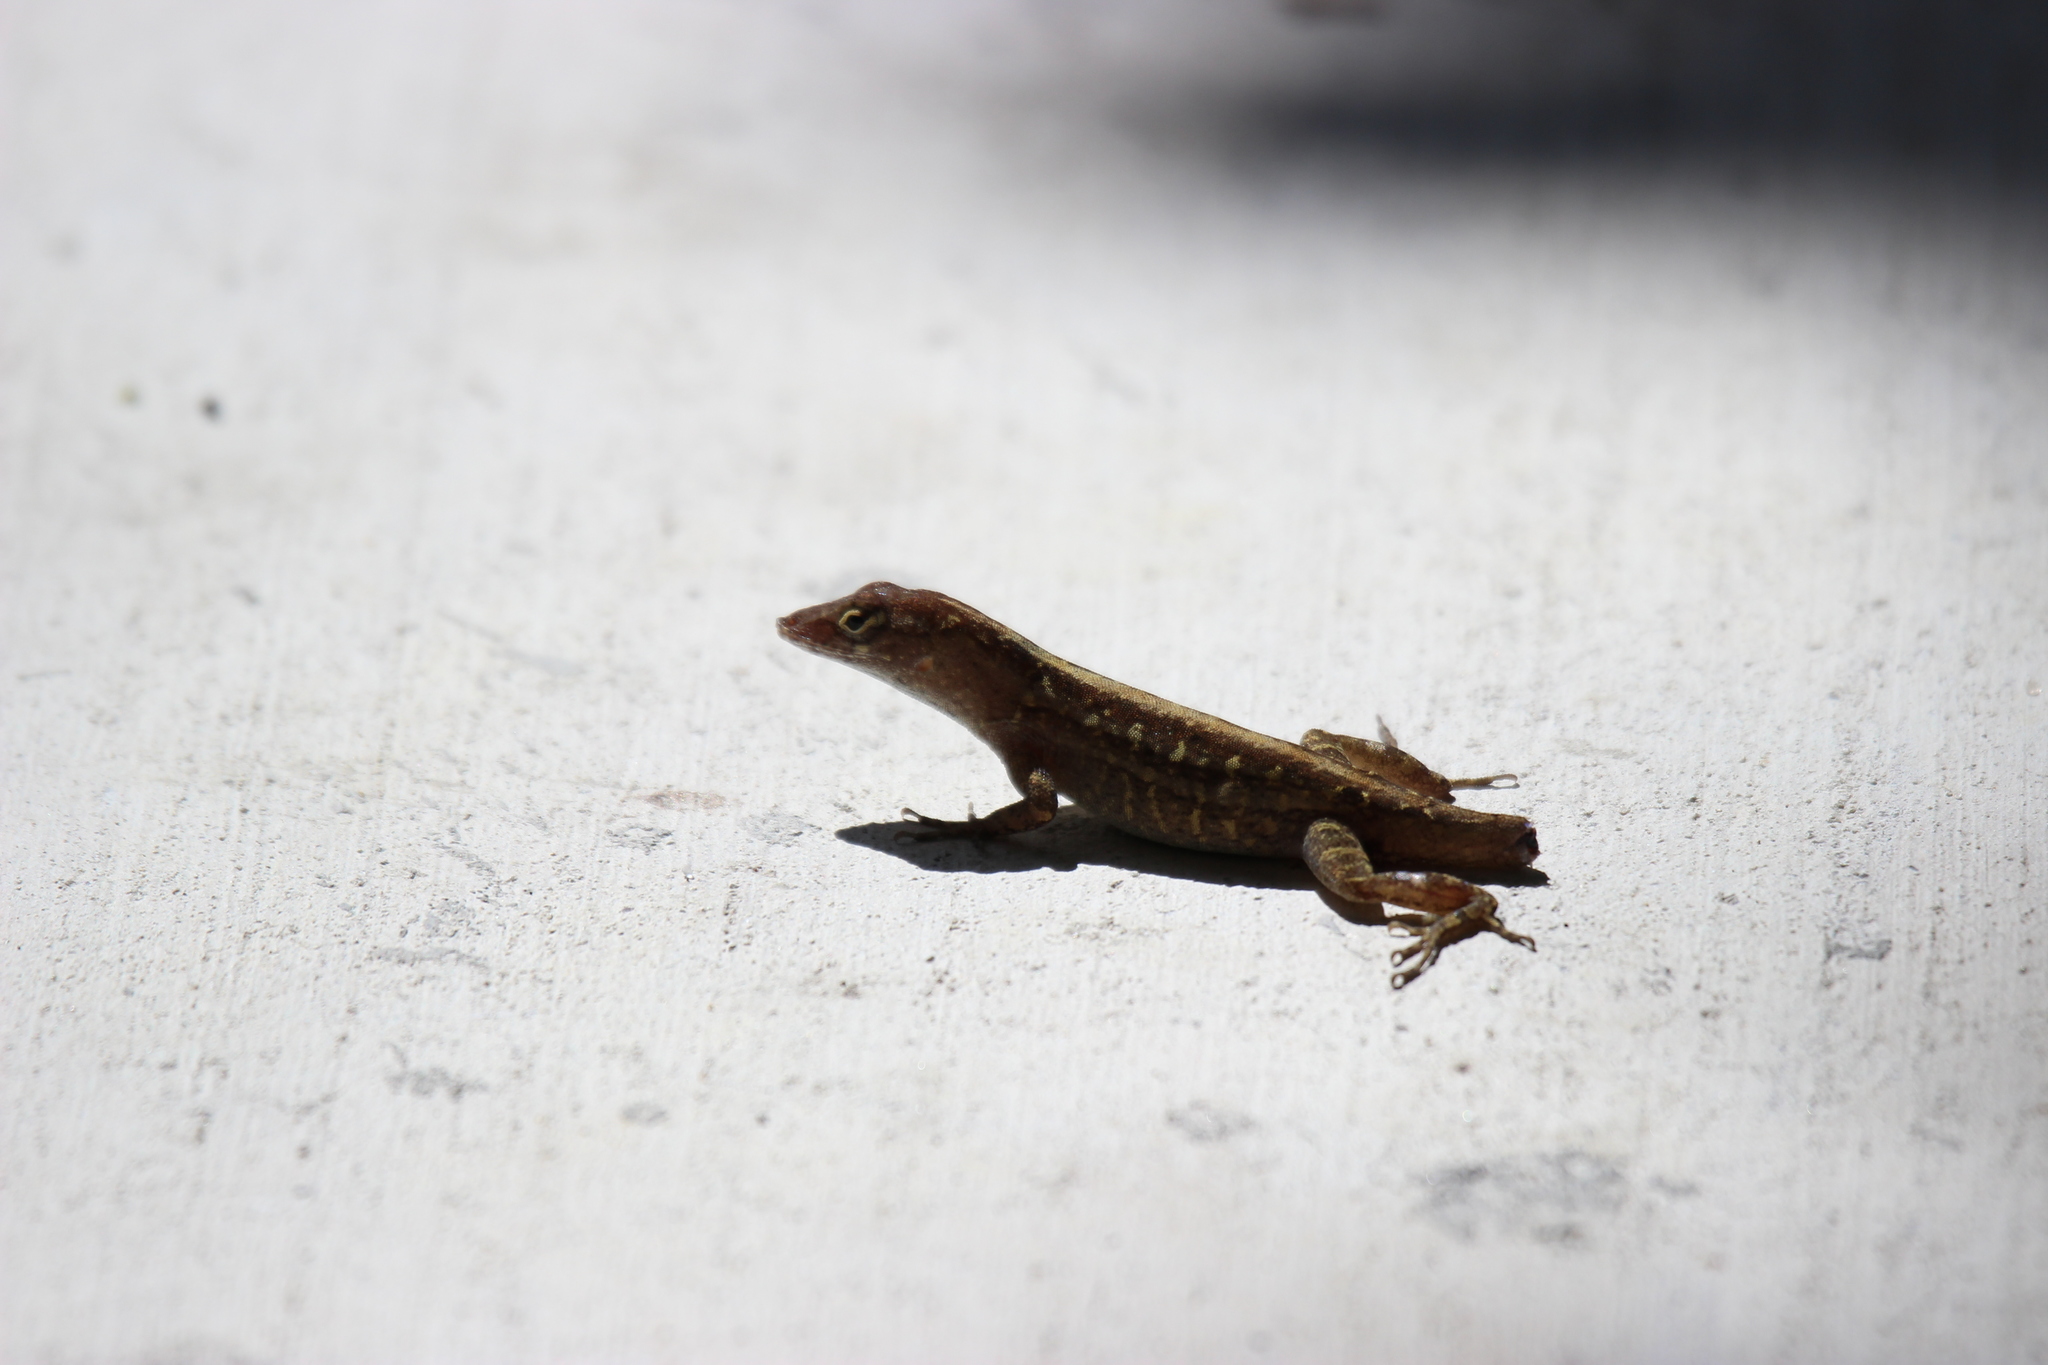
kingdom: Animalia
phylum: Chordata
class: Squamata
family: Dactyloidae
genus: Anolis
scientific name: Anolis sagrei
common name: Brown anole
